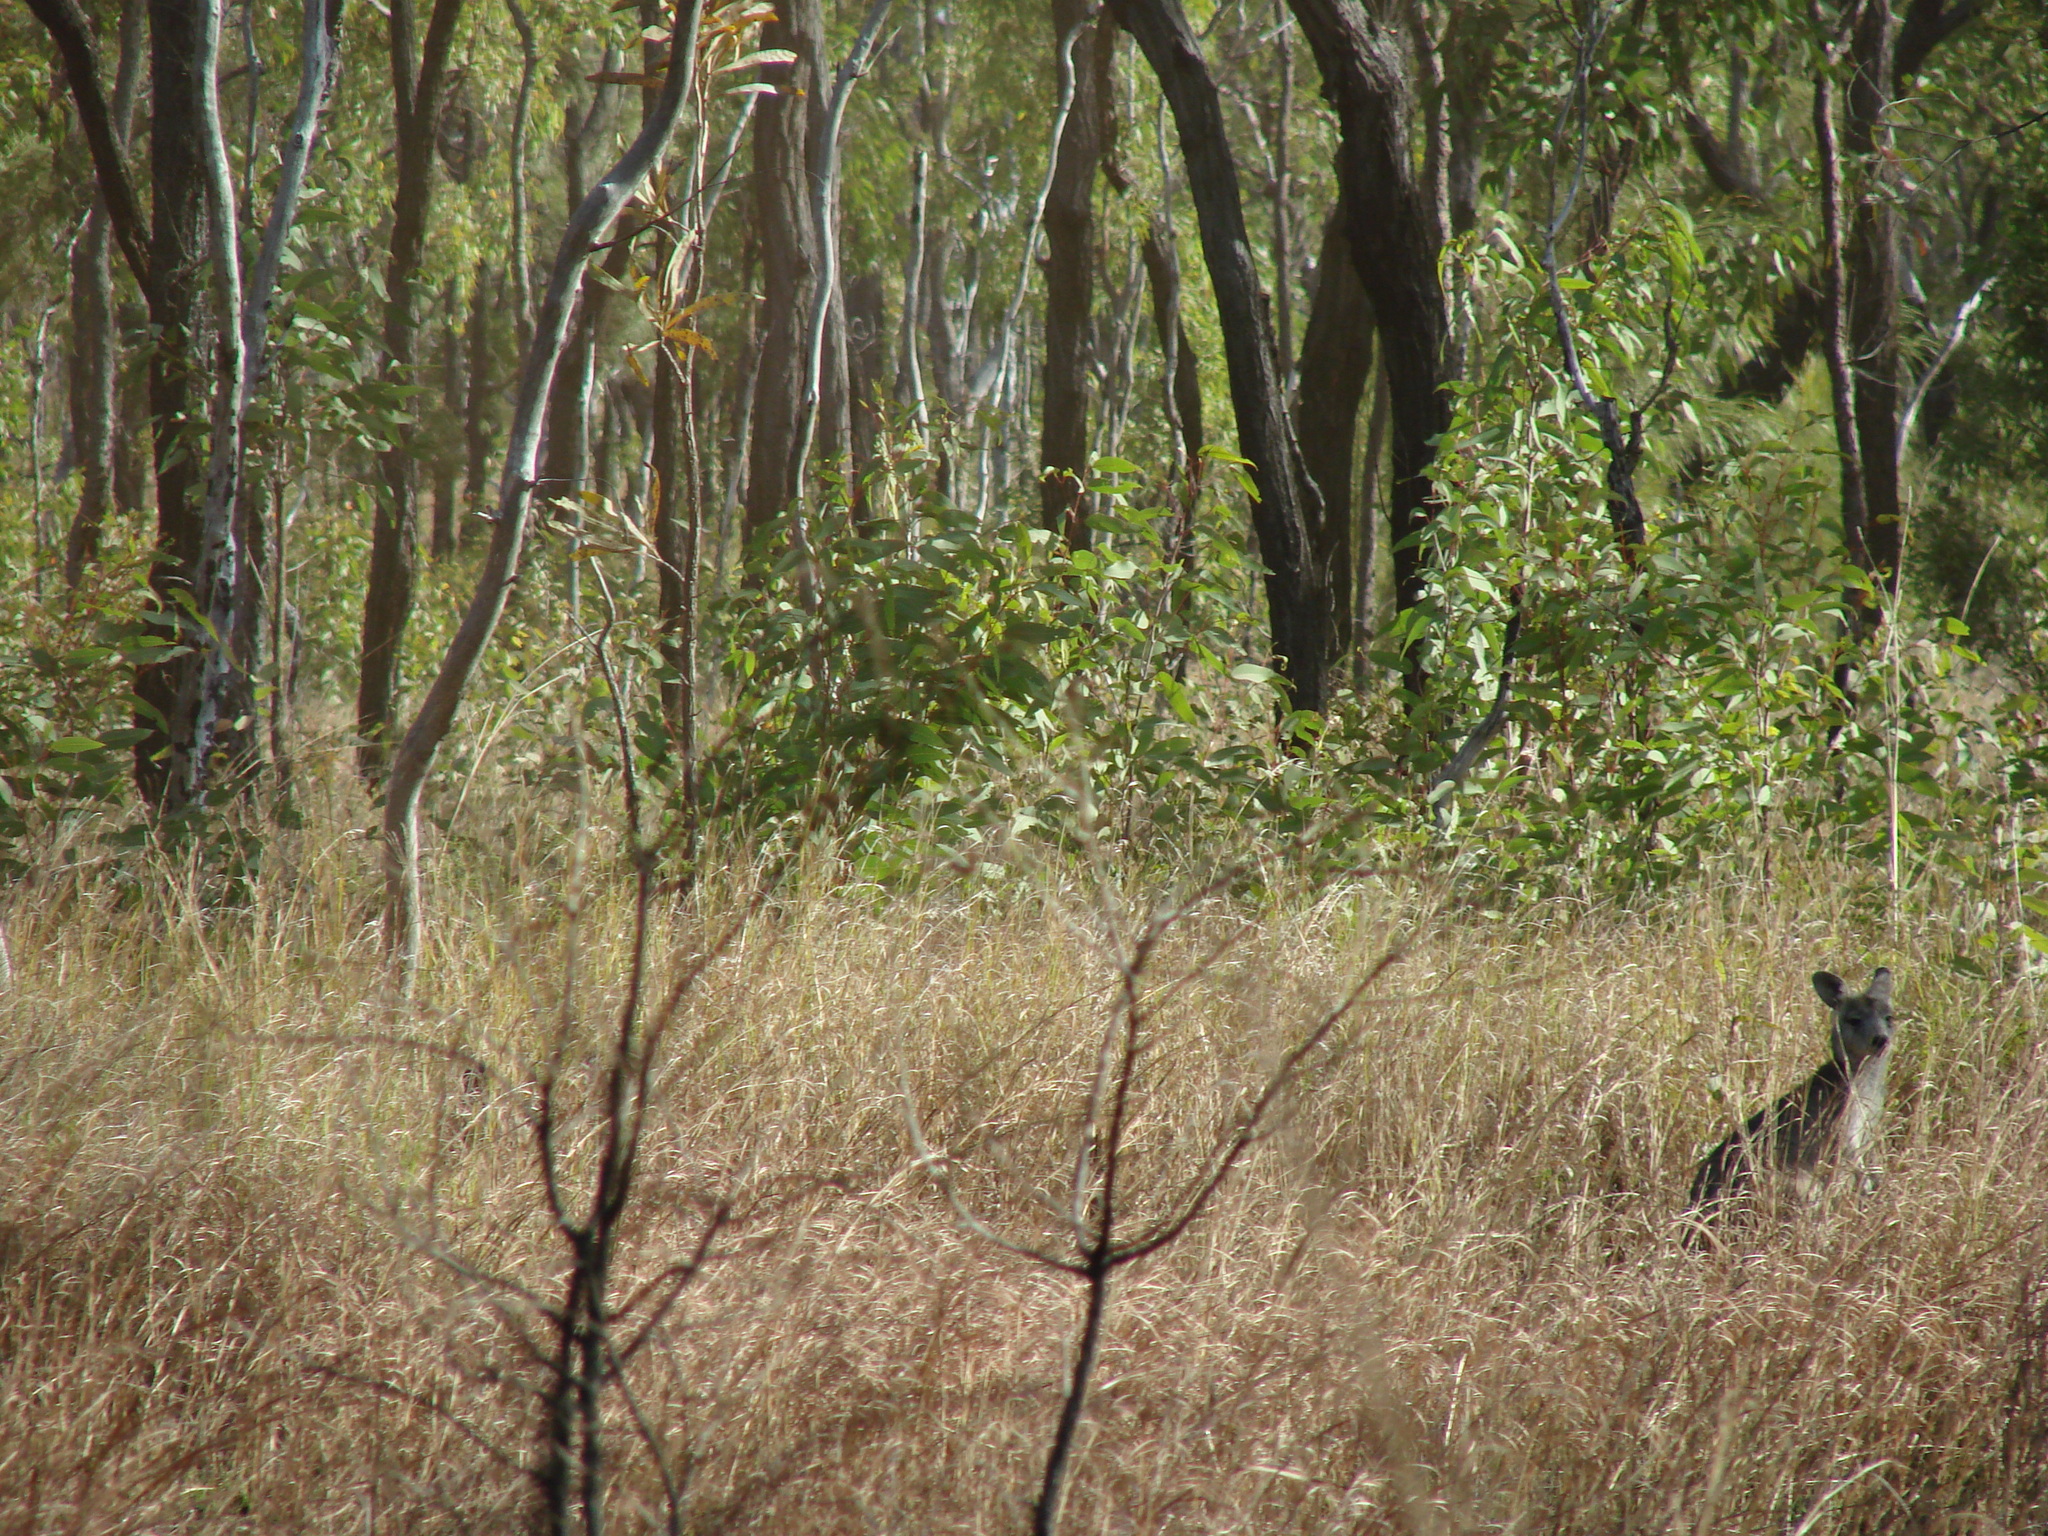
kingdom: Animalia
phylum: Chordata
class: Mammalia
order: Diprotodontia
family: Macropodidae
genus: Macropus
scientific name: Macropus robustus
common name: Eastern wallaroo
